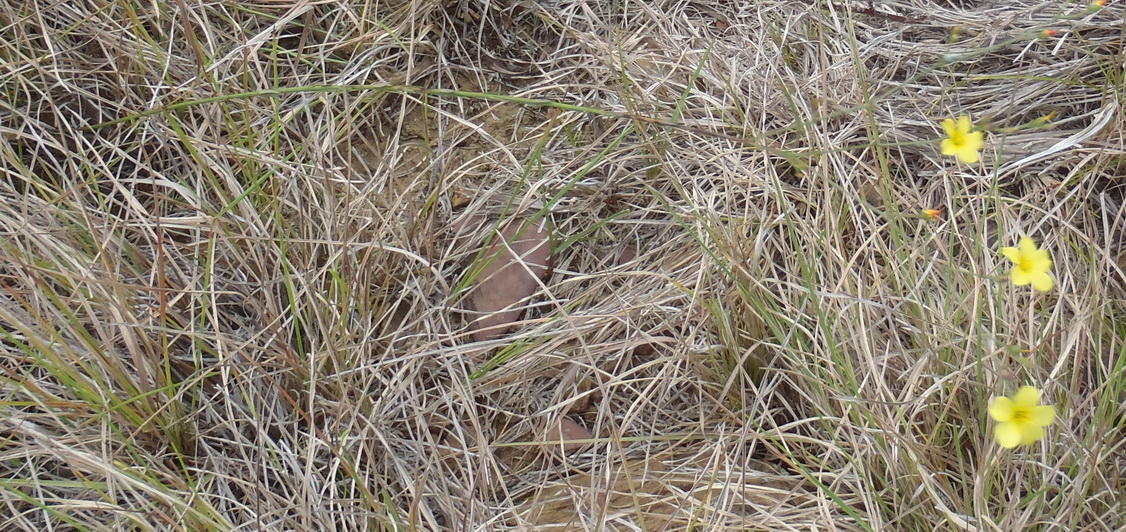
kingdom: Plantae
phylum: Tracheophyta
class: Magnoliopsida
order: Malpighiales
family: Linaceae
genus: Linum
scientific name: Linum africanum
